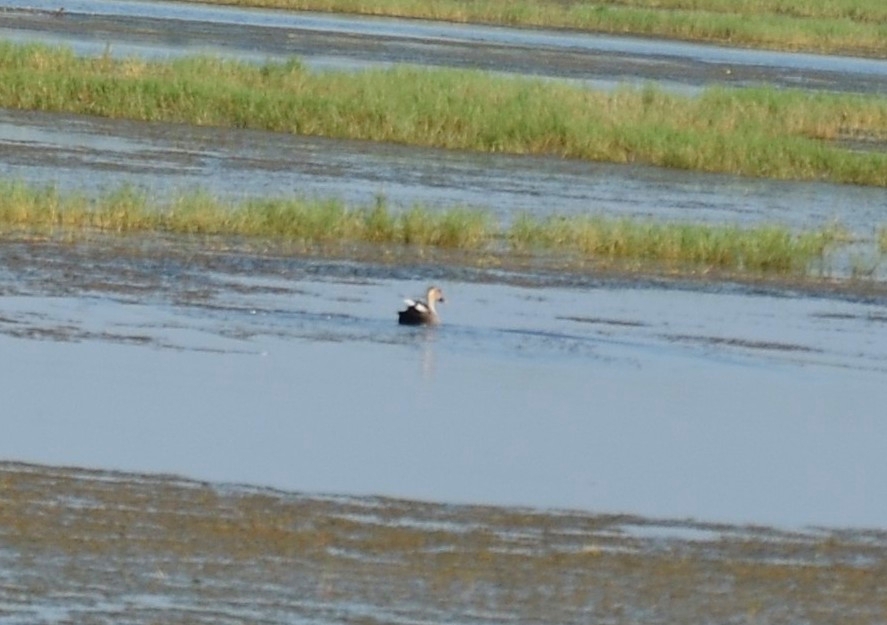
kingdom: Animalia
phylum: Chordata
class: Aves
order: Anseriformes
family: Anatidae
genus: Anas
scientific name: Anas poecilorhyncha
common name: Indian spot-billed duck
